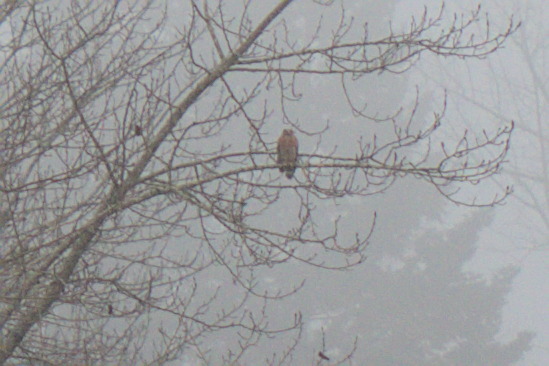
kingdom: Animalia
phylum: Chordata
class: Aves
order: Accipitriformes
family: Accipitridae
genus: Buteo
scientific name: Buteo lineatus
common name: Red-shouldered hawk
